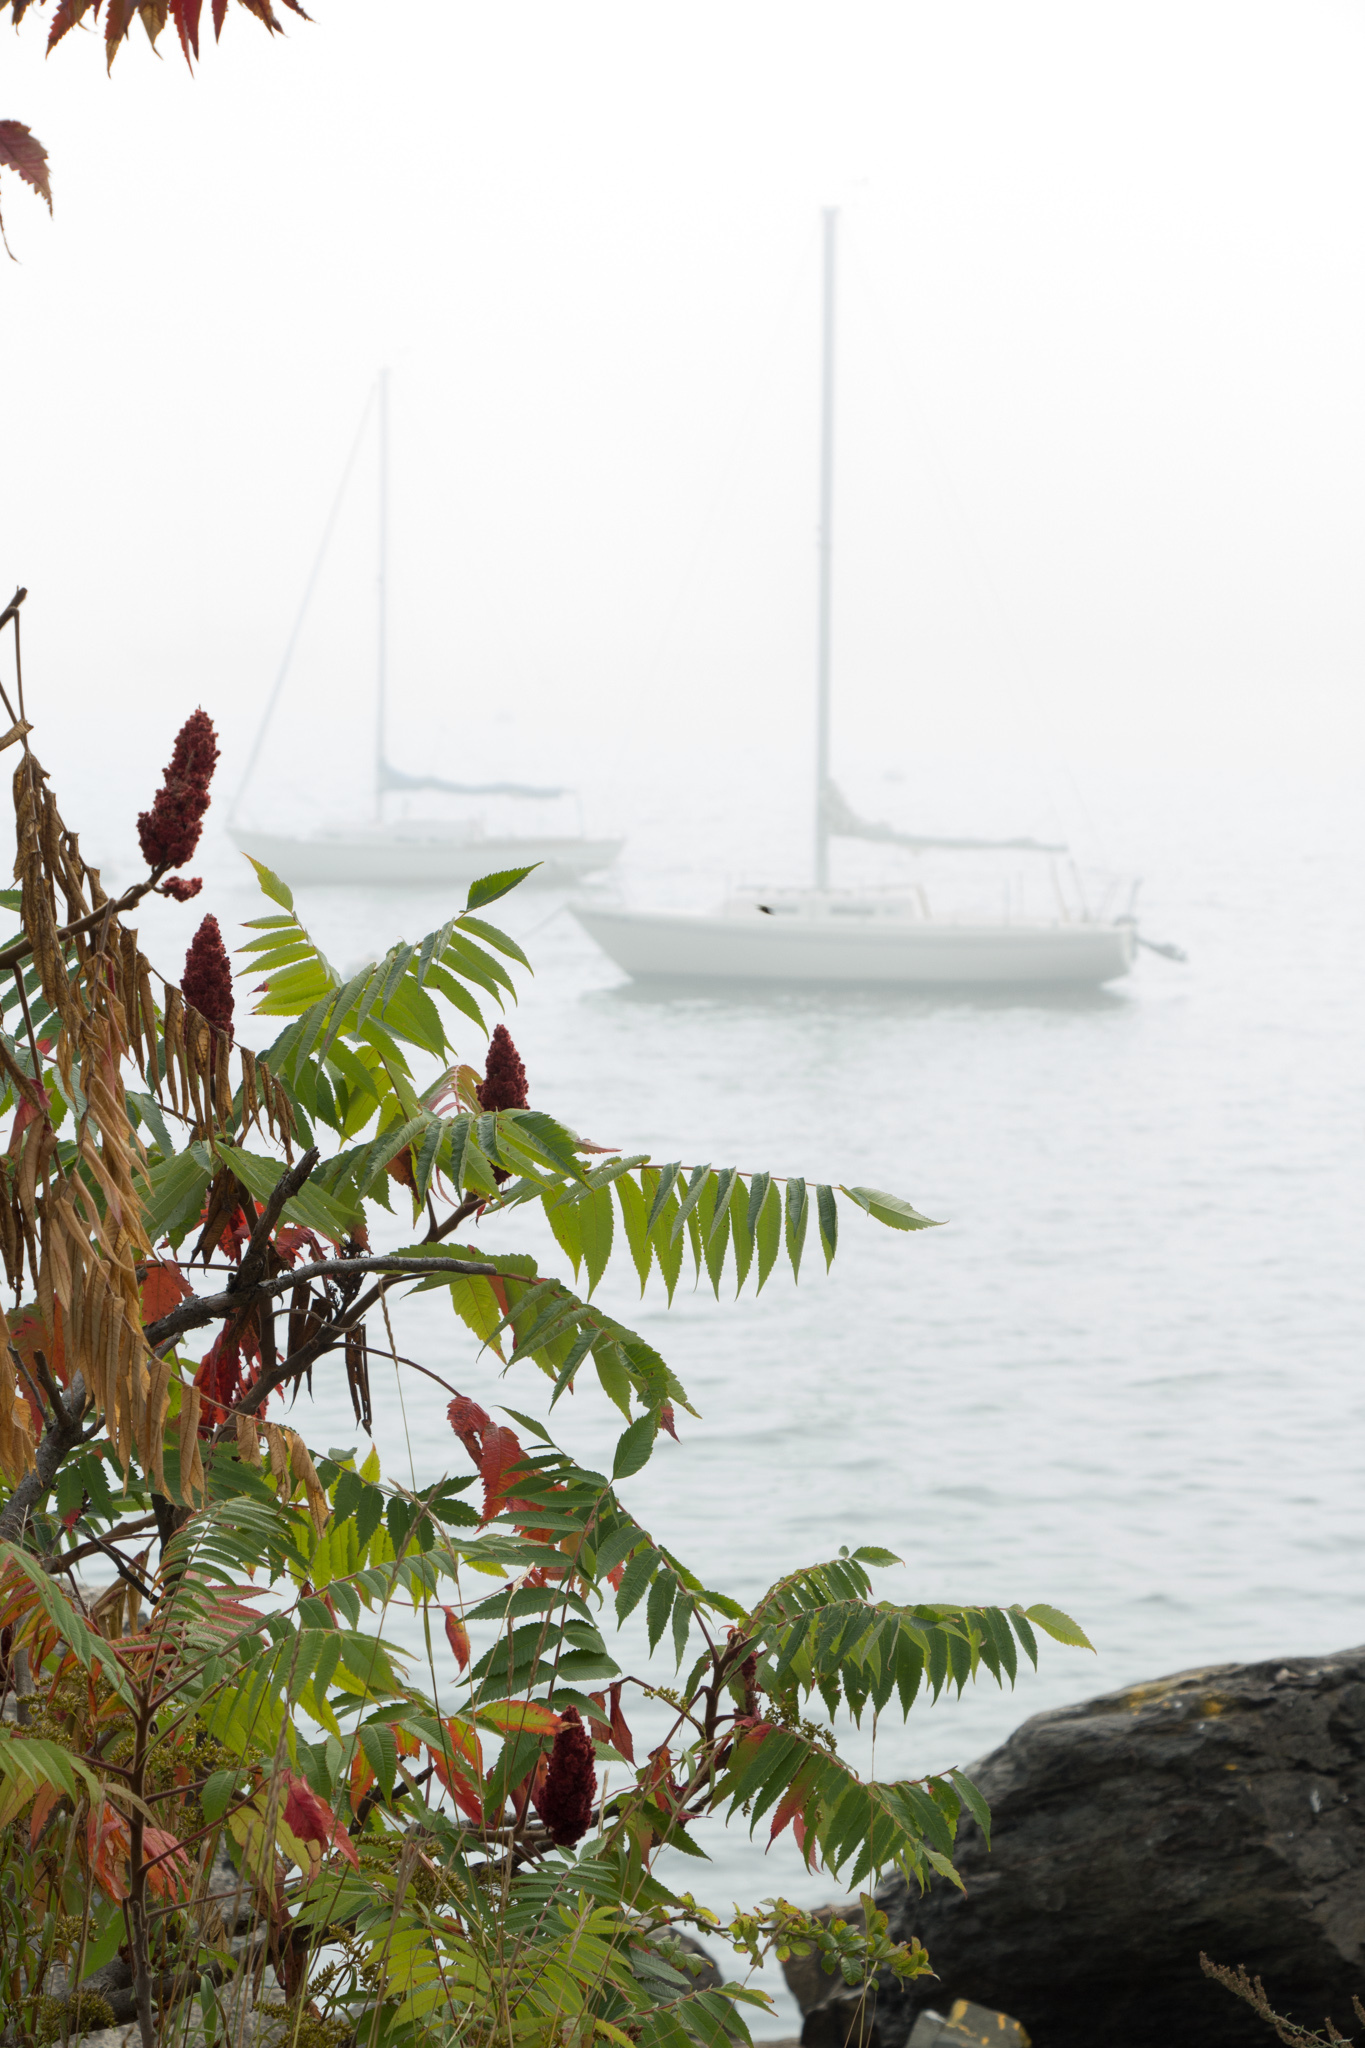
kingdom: Plantae
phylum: Tracheophyta
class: Magnoliopsida
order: Sapindales
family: Anacardiaceae
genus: Rhus
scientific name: Rhus typhina
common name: Staghorn sumac
